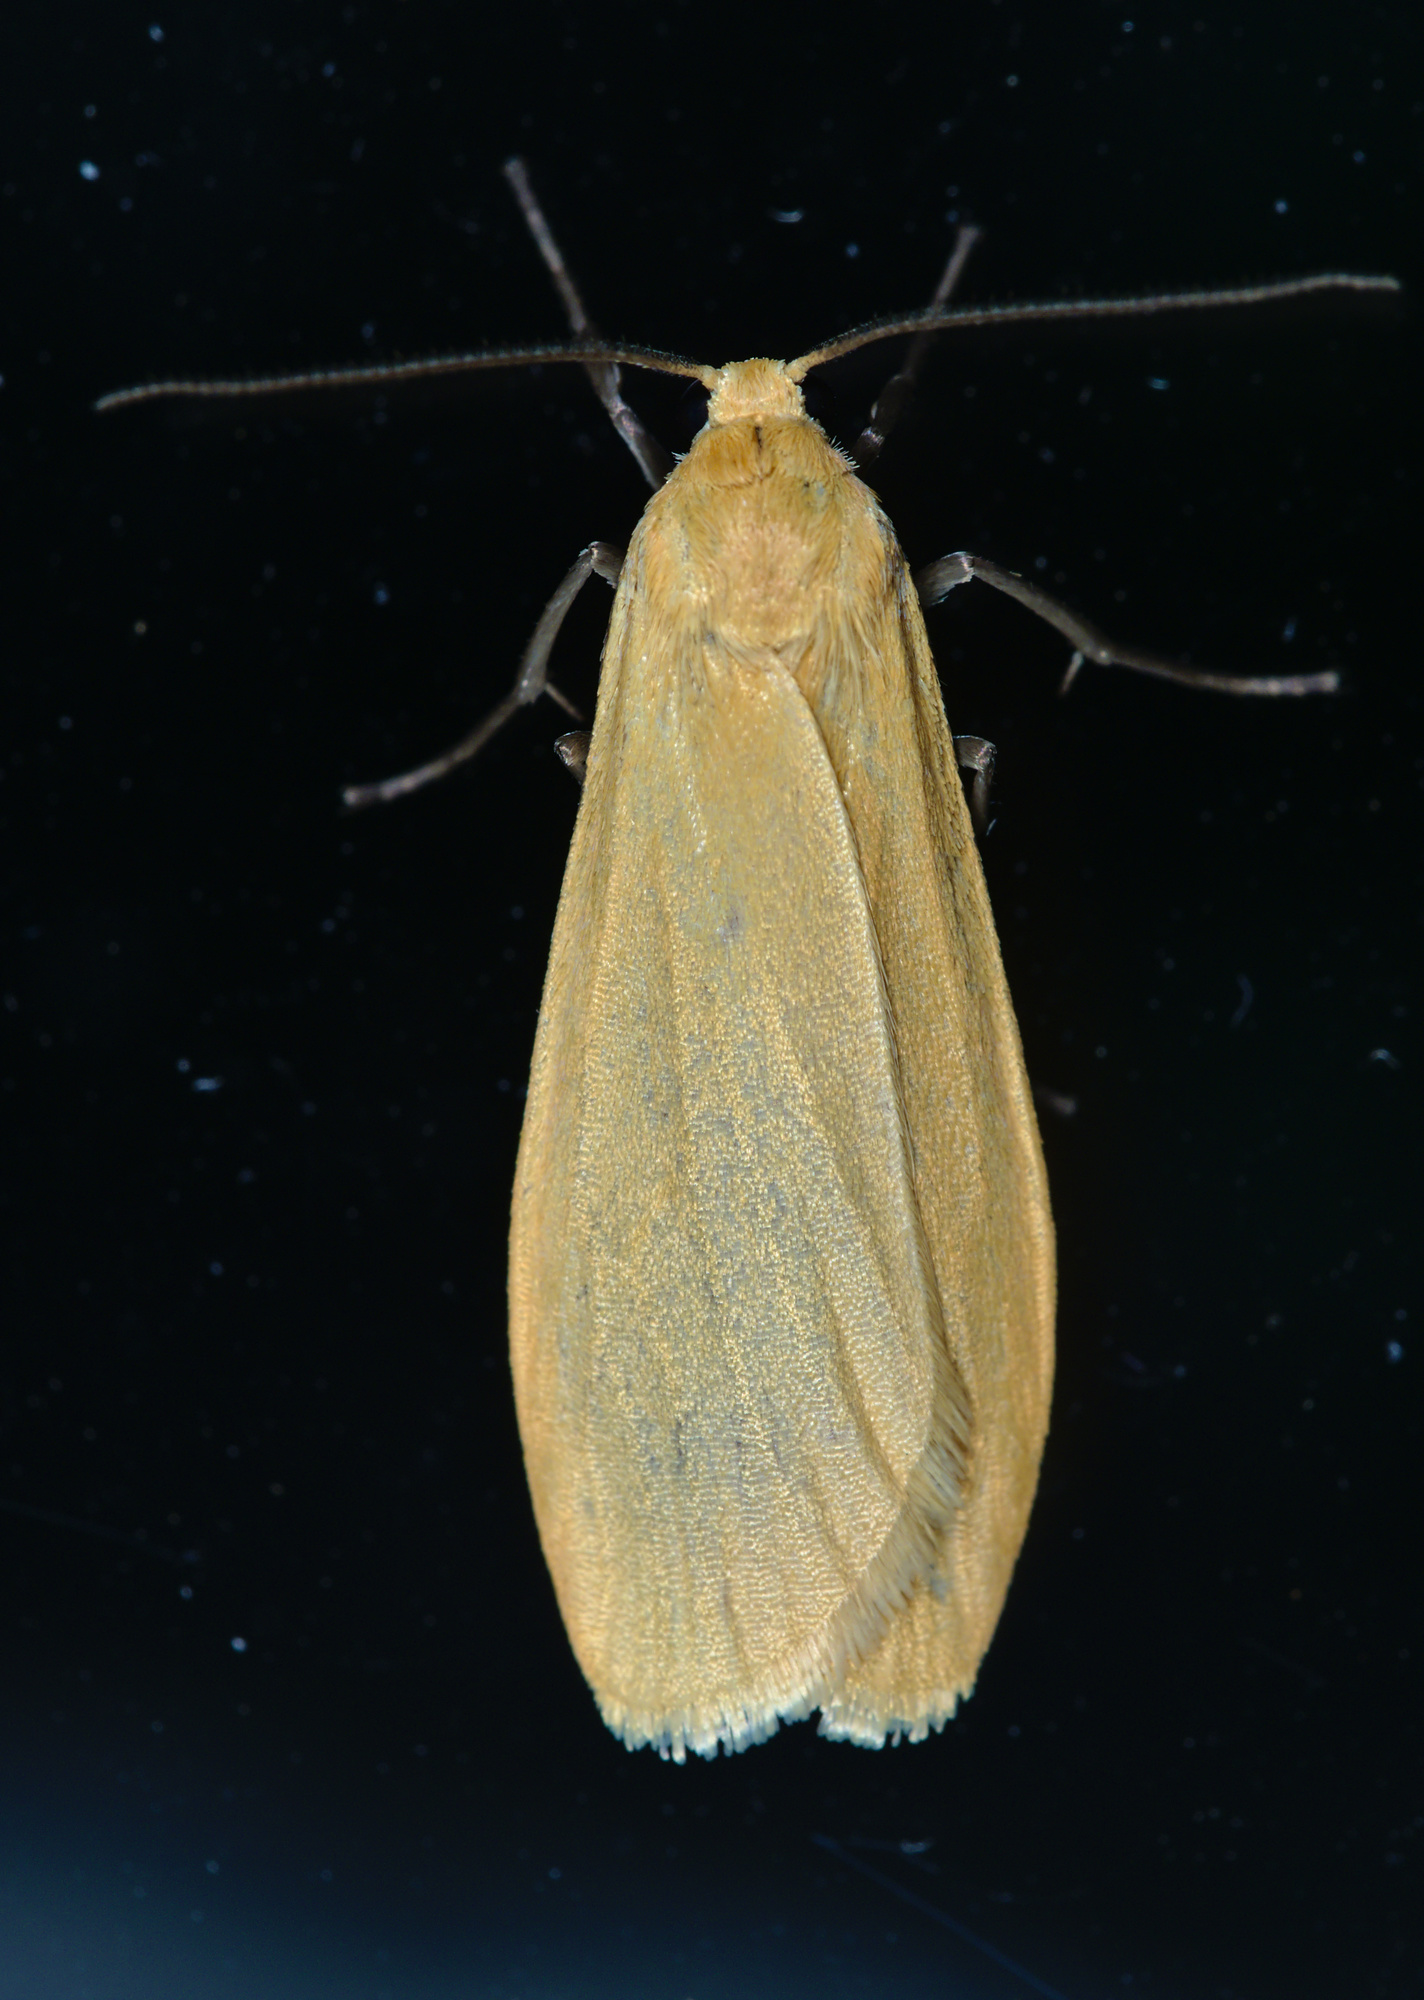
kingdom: Animalia
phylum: Arthropoda
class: Insecta
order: Lepidoptera
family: Erebidae
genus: Wittia
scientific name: Wittia sororcula
